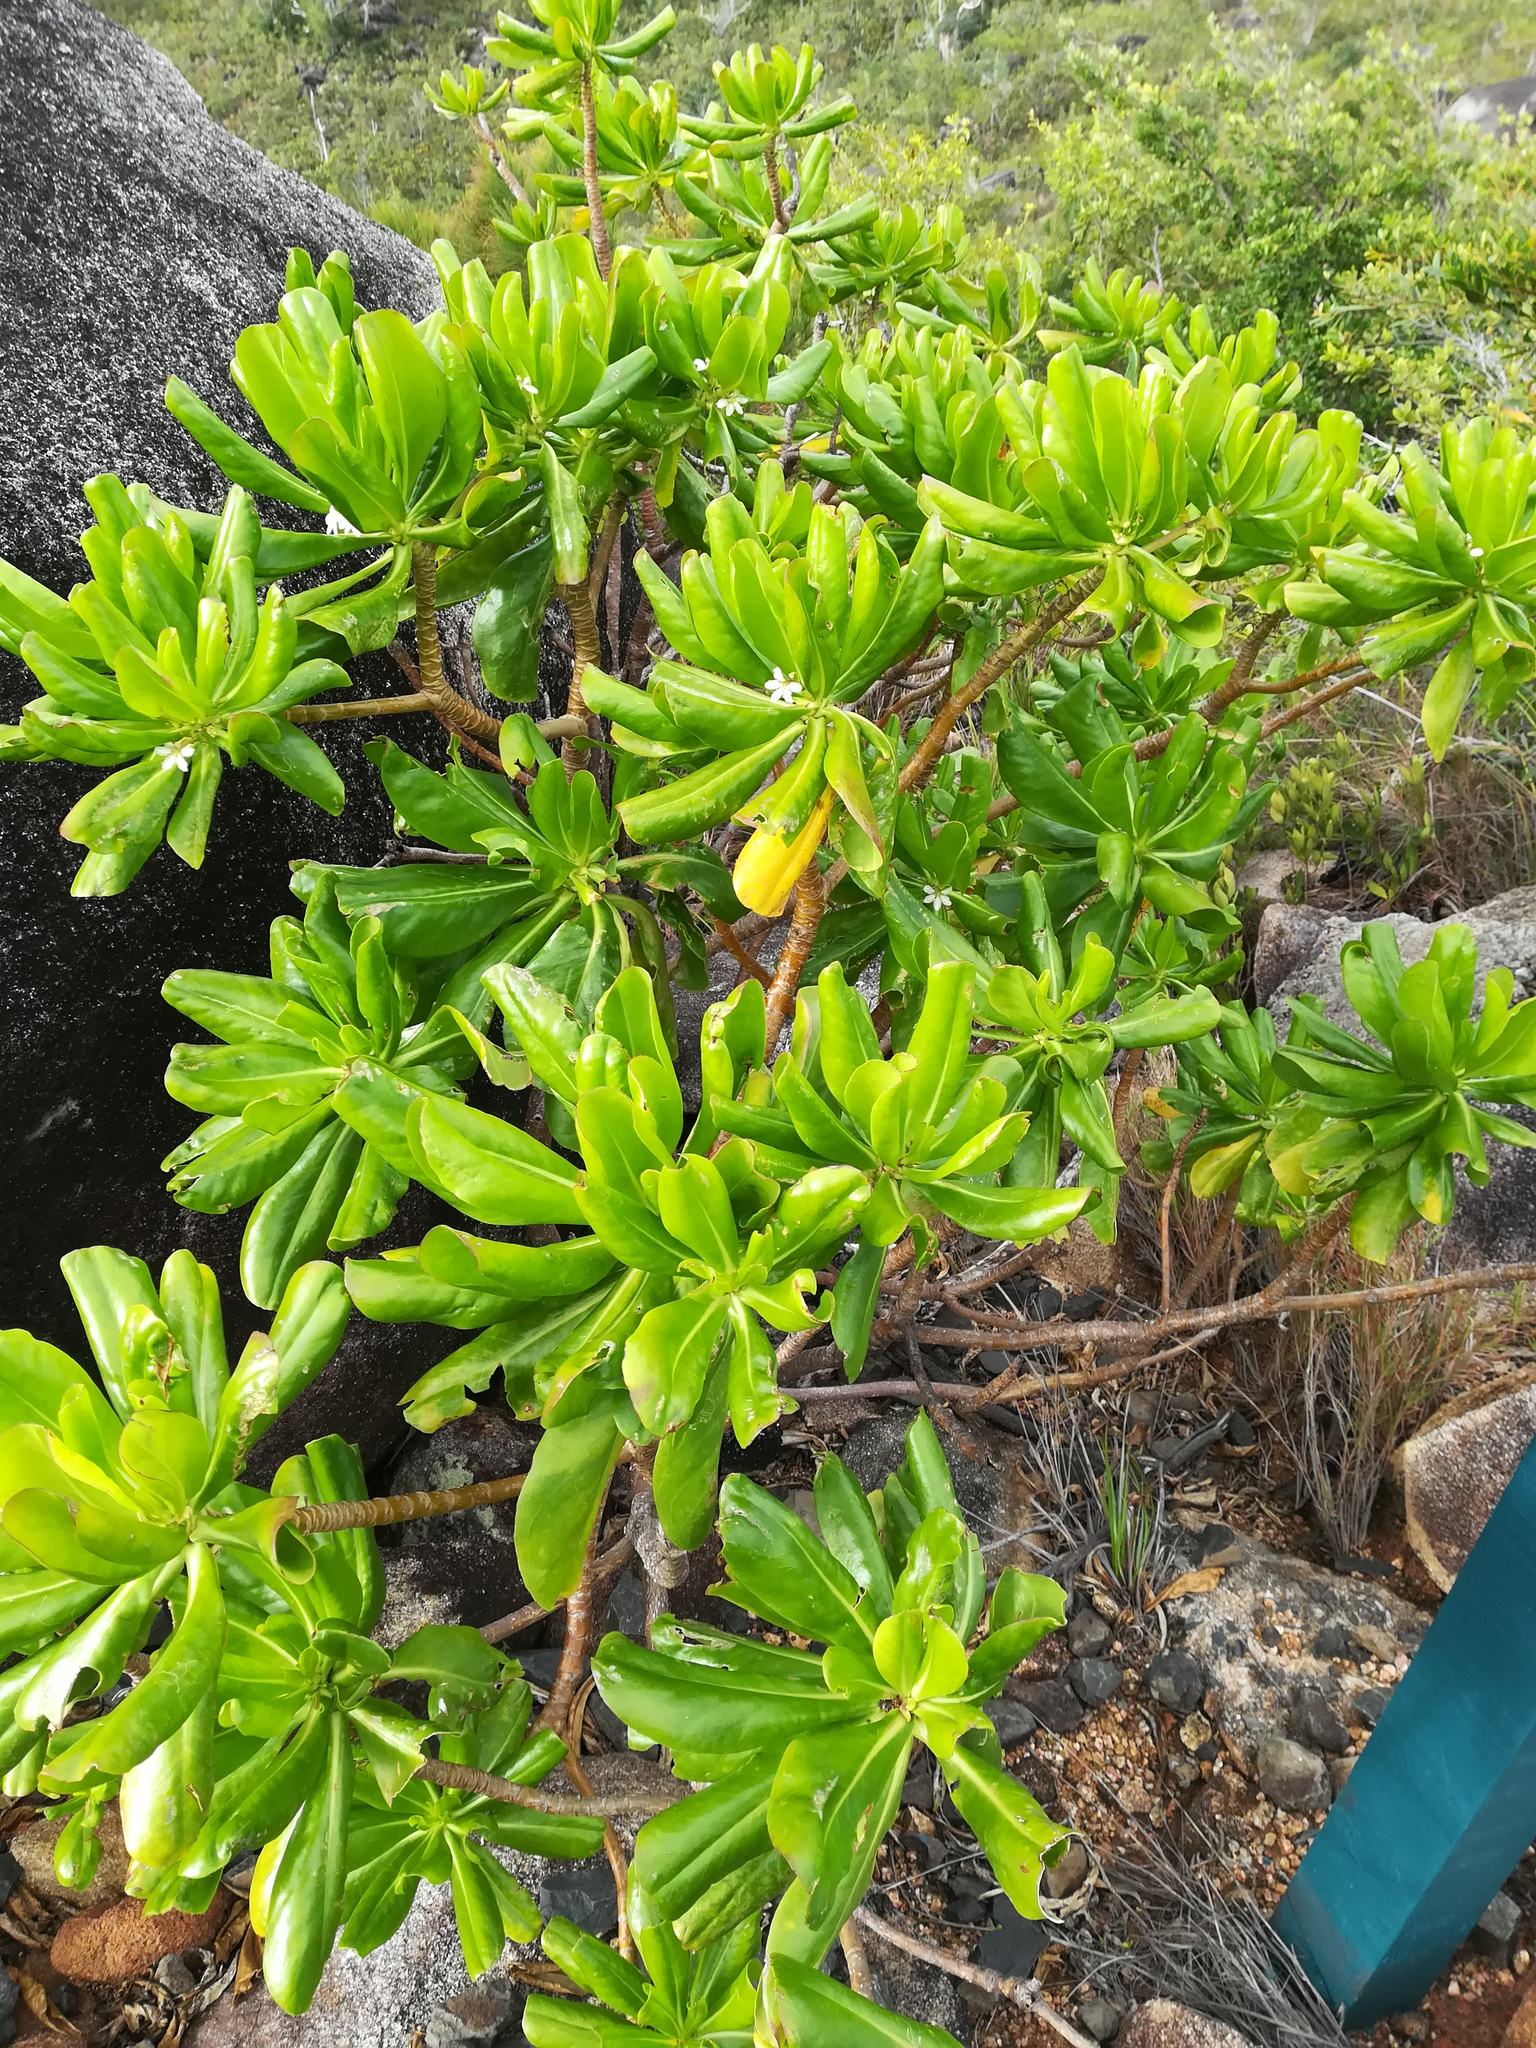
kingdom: Plantae
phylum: Tracheophyta
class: Magnoliopsida
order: Asterales
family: Goodeniaceae
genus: Scaevola
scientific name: Scaevola taccada
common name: Sea lettucetree
